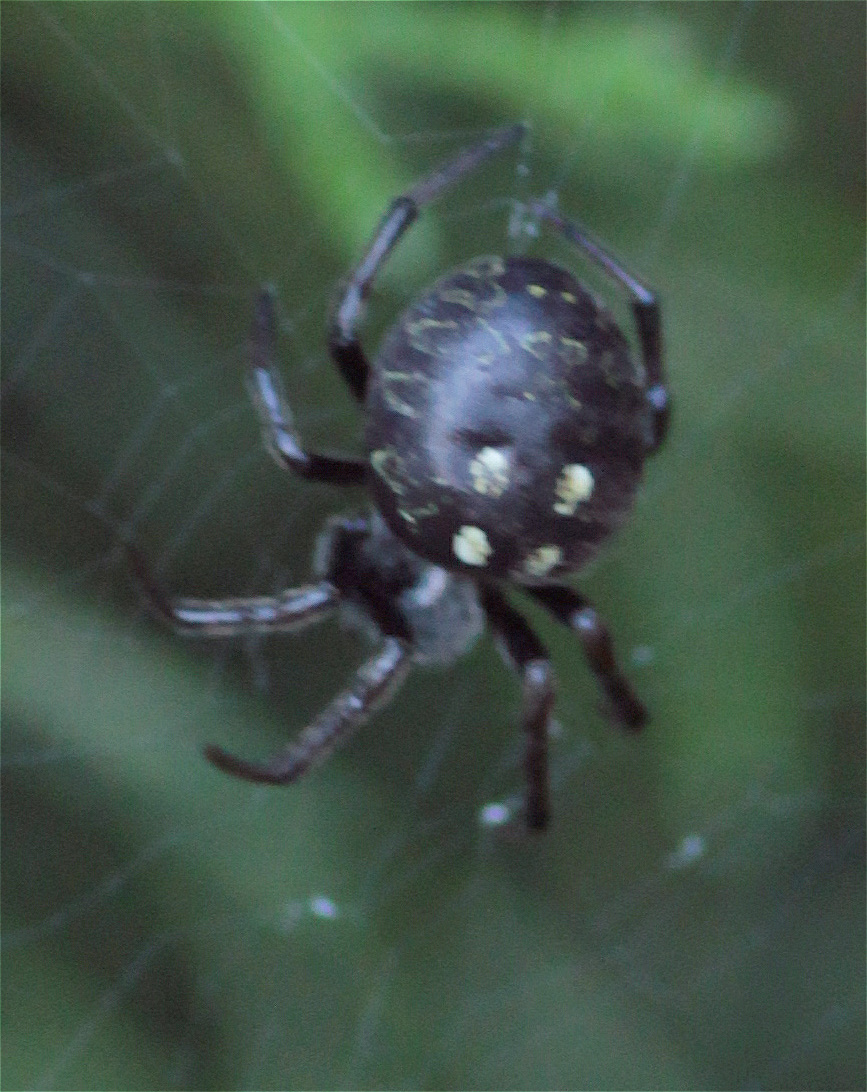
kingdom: Animalia
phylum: Arthropoda
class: Arachnida
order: Araneae
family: Araneidae
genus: Araneus
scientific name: Araneus granadensis
